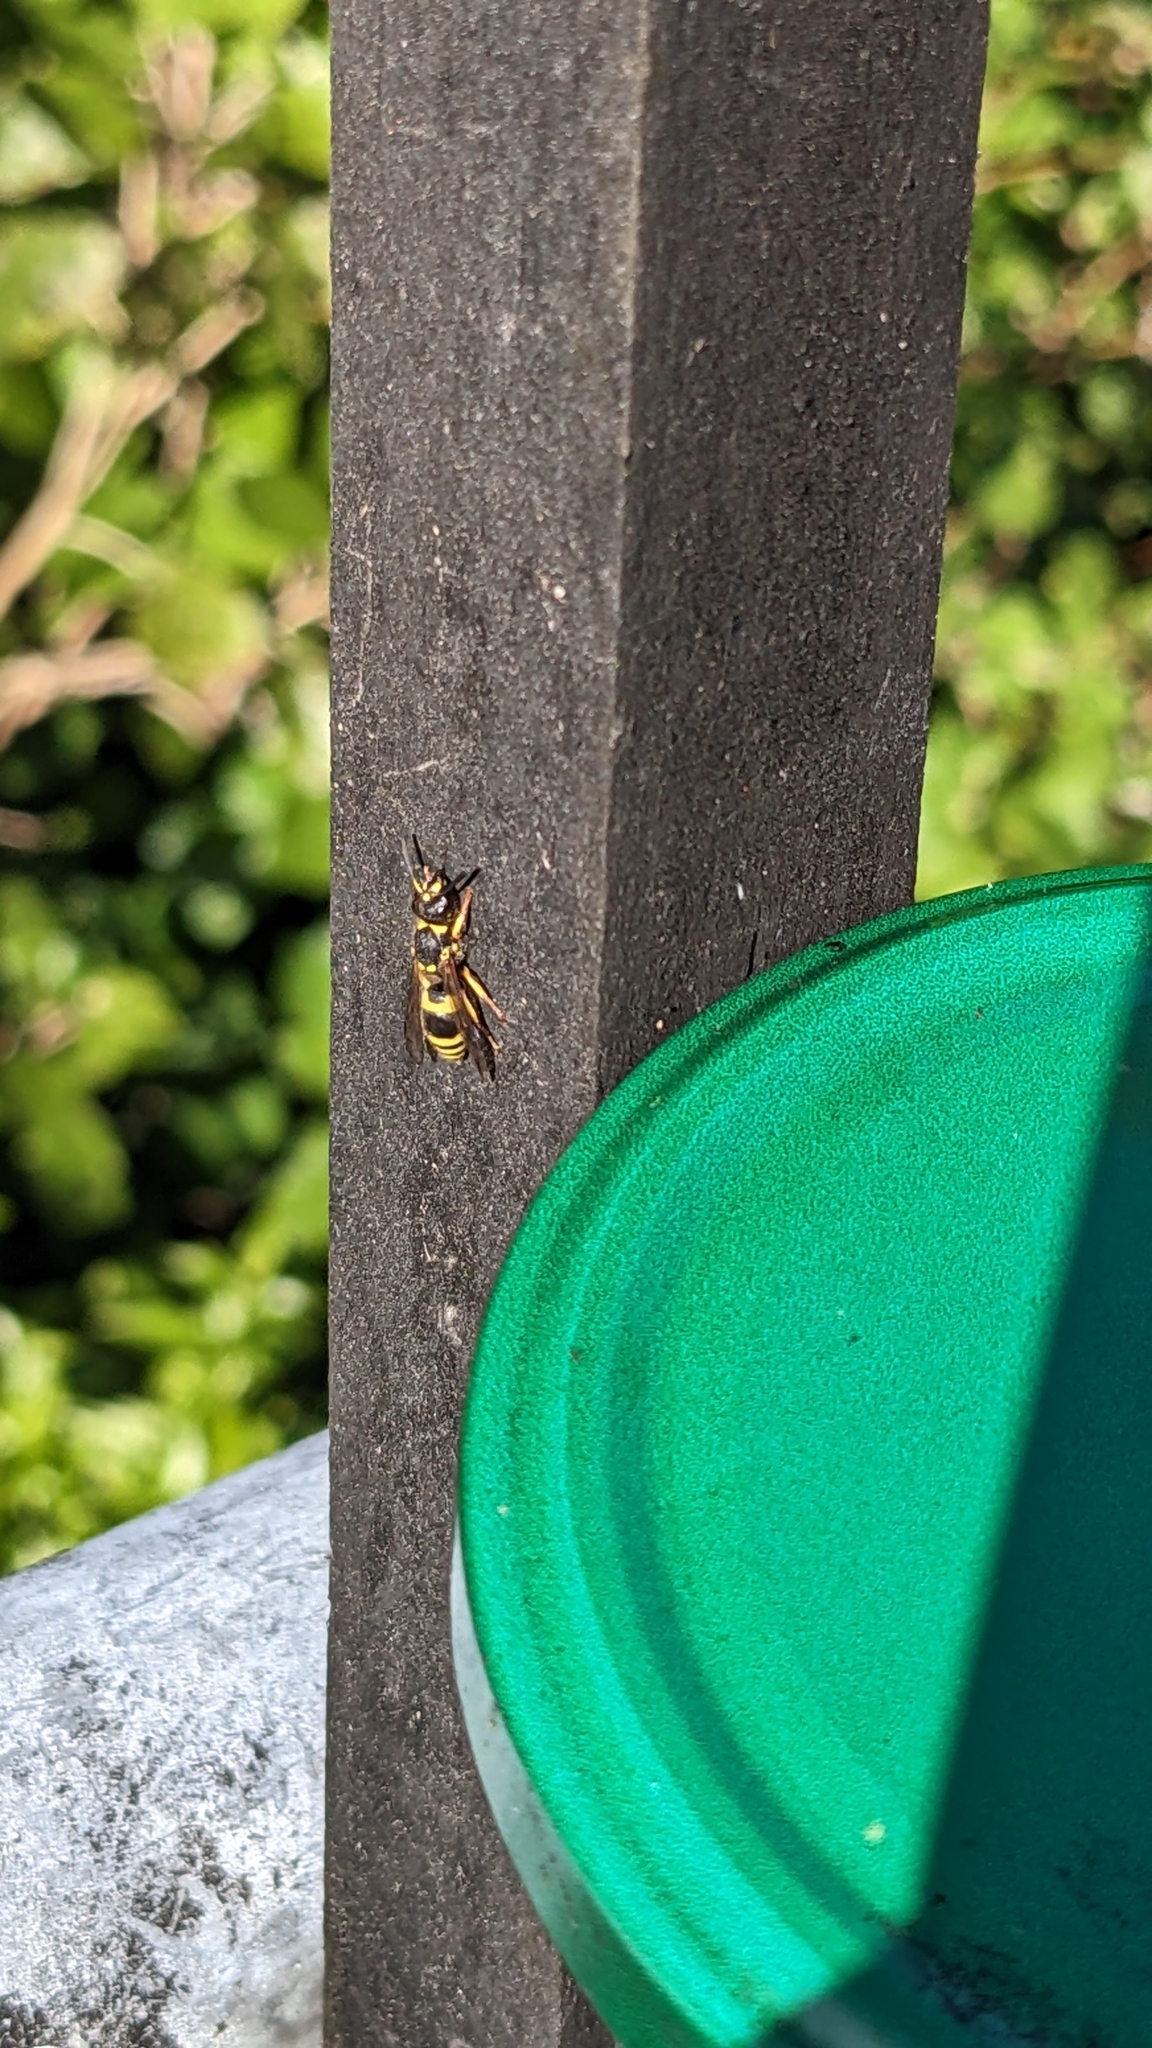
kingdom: Animalia
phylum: Arthropoda
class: Insecta
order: Hymenoptera
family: Vespidae
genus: Ancistrocerus
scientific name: Ancistrocerus gazella
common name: European tube wasp
